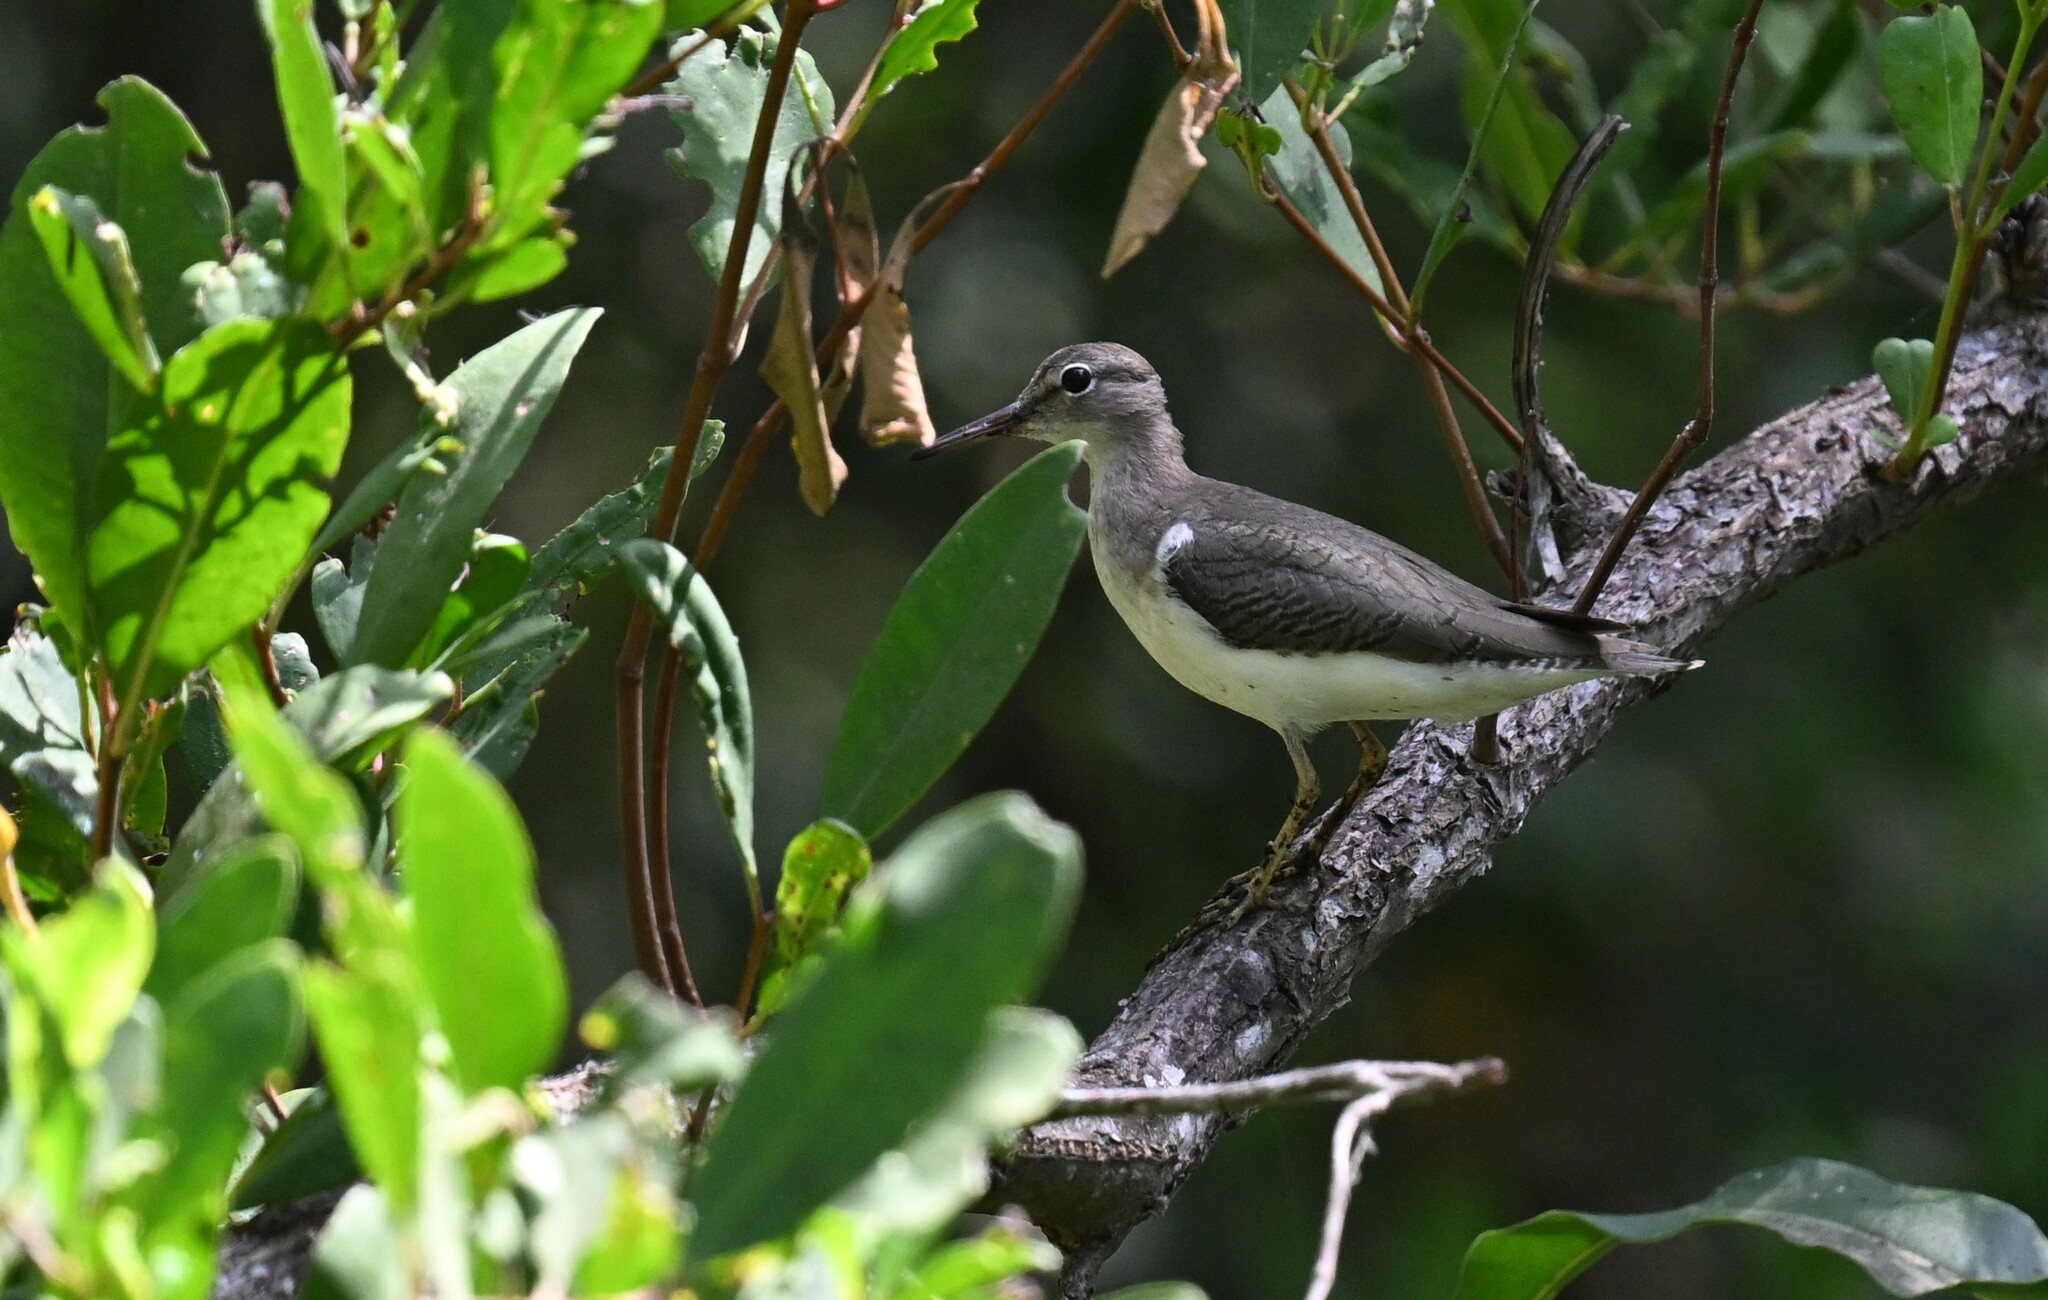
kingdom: Animalia
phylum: Chordata
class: Aves
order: Charadriiformes
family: Scolopacidae
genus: Actitis
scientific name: Actitis macularius
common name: Spotted sandpiper
